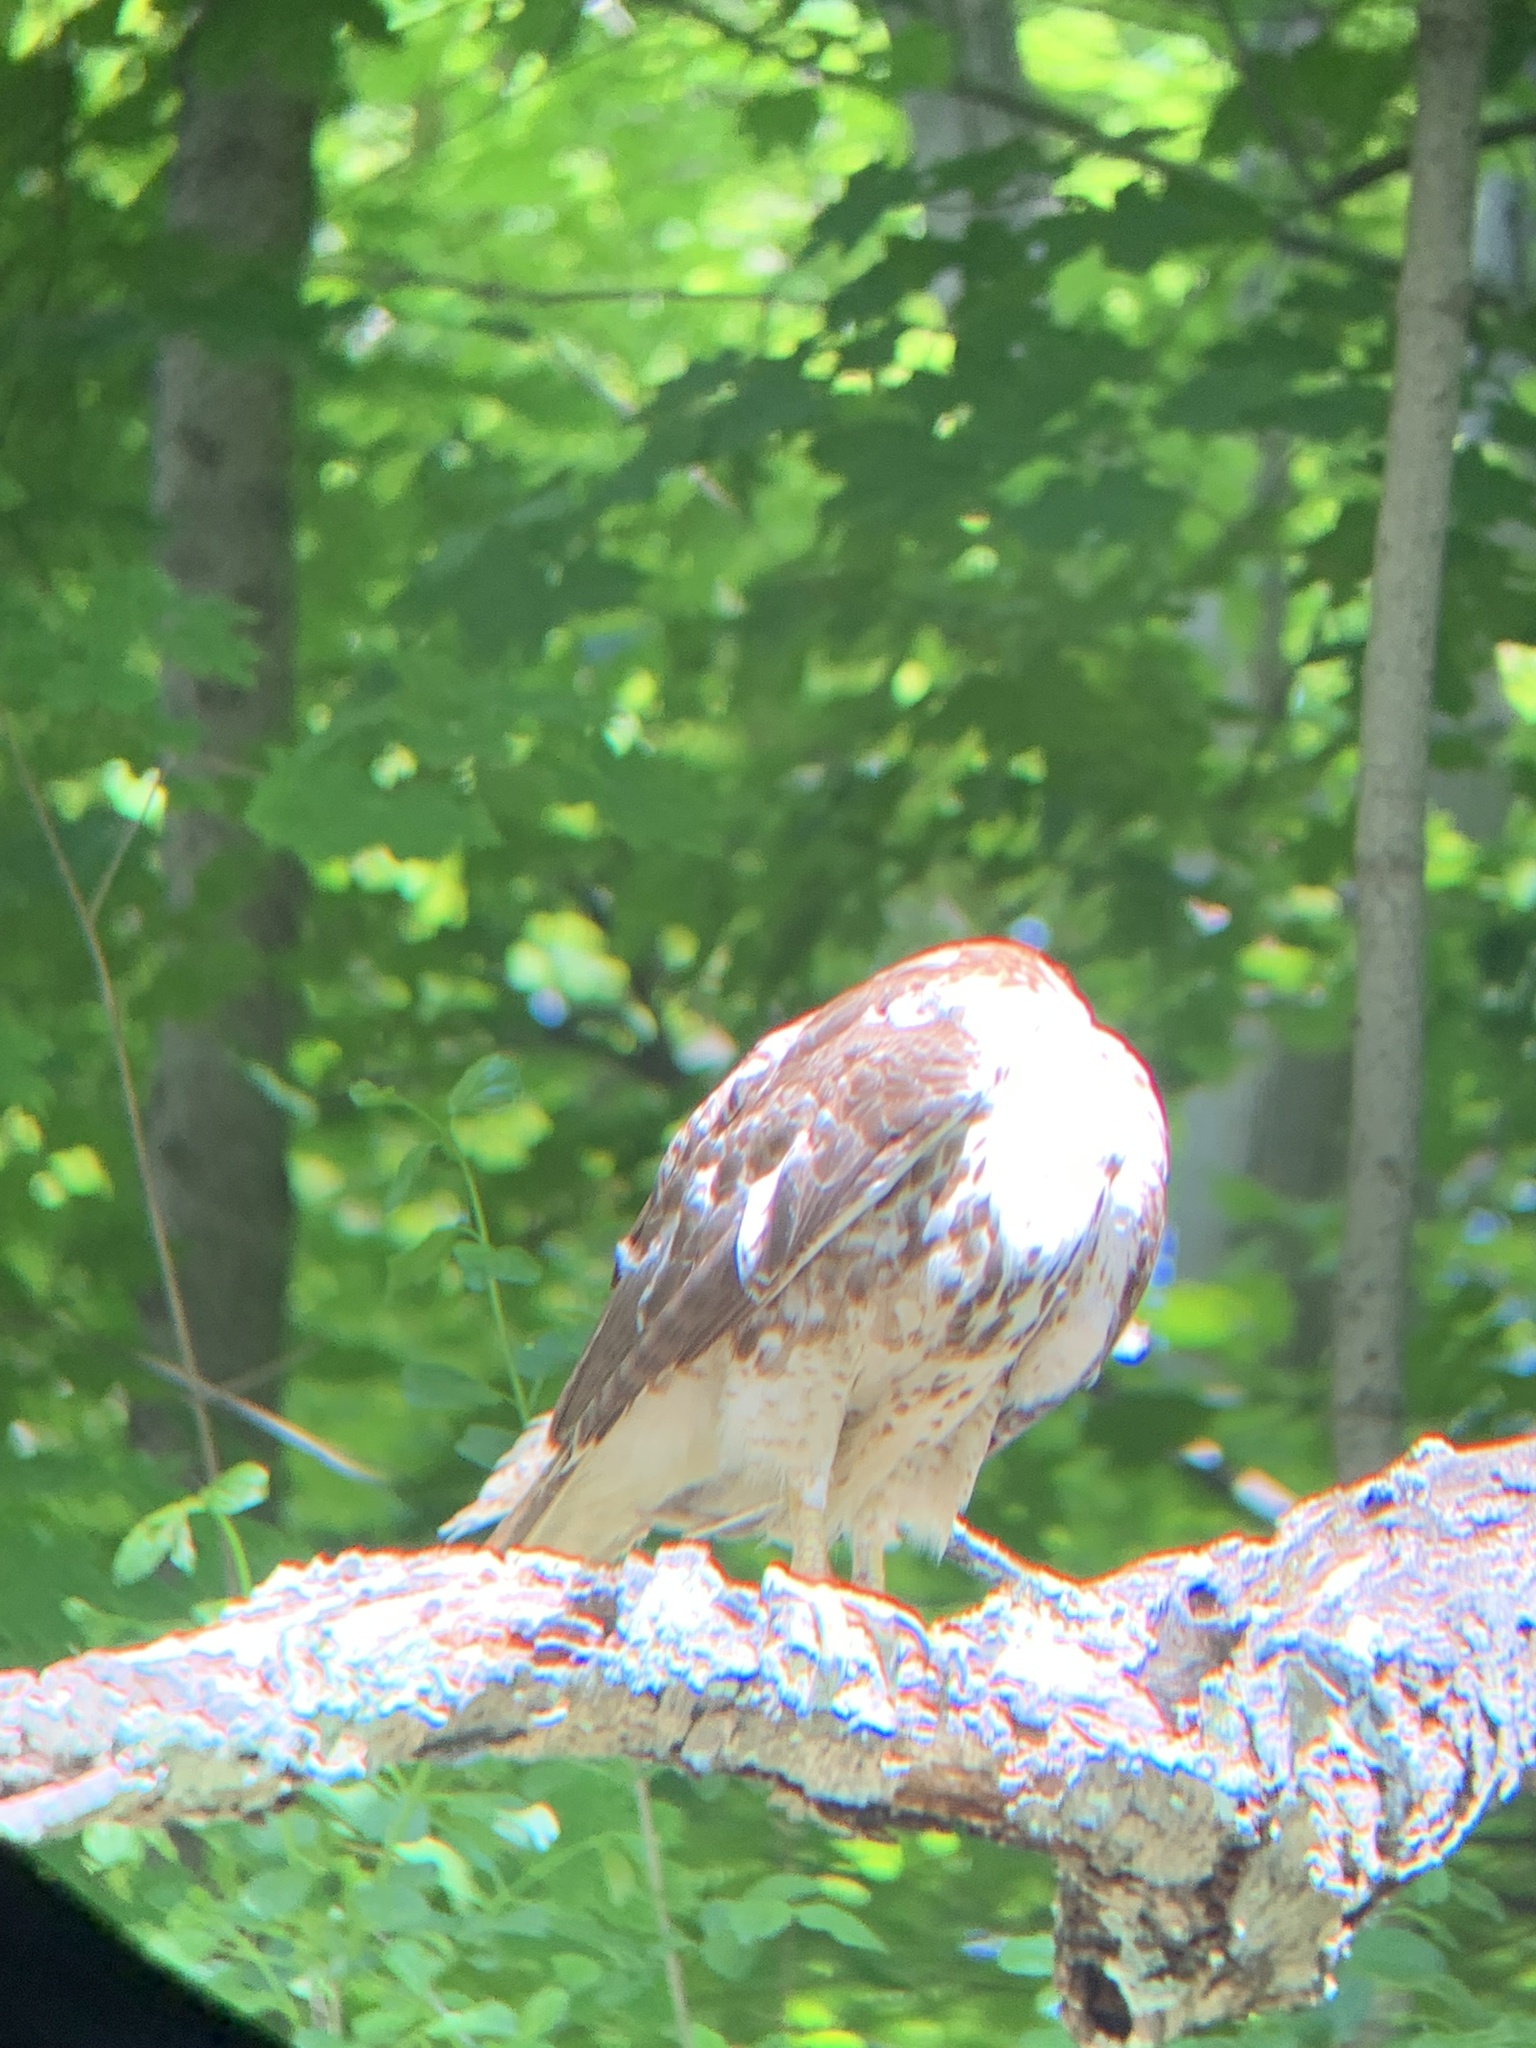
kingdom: Animalia
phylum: Chordata
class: Aves
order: Accipitriformes
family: Accipitridae
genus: Buteo
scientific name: Buteo jamaicensis
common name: Red-tailed hawk
